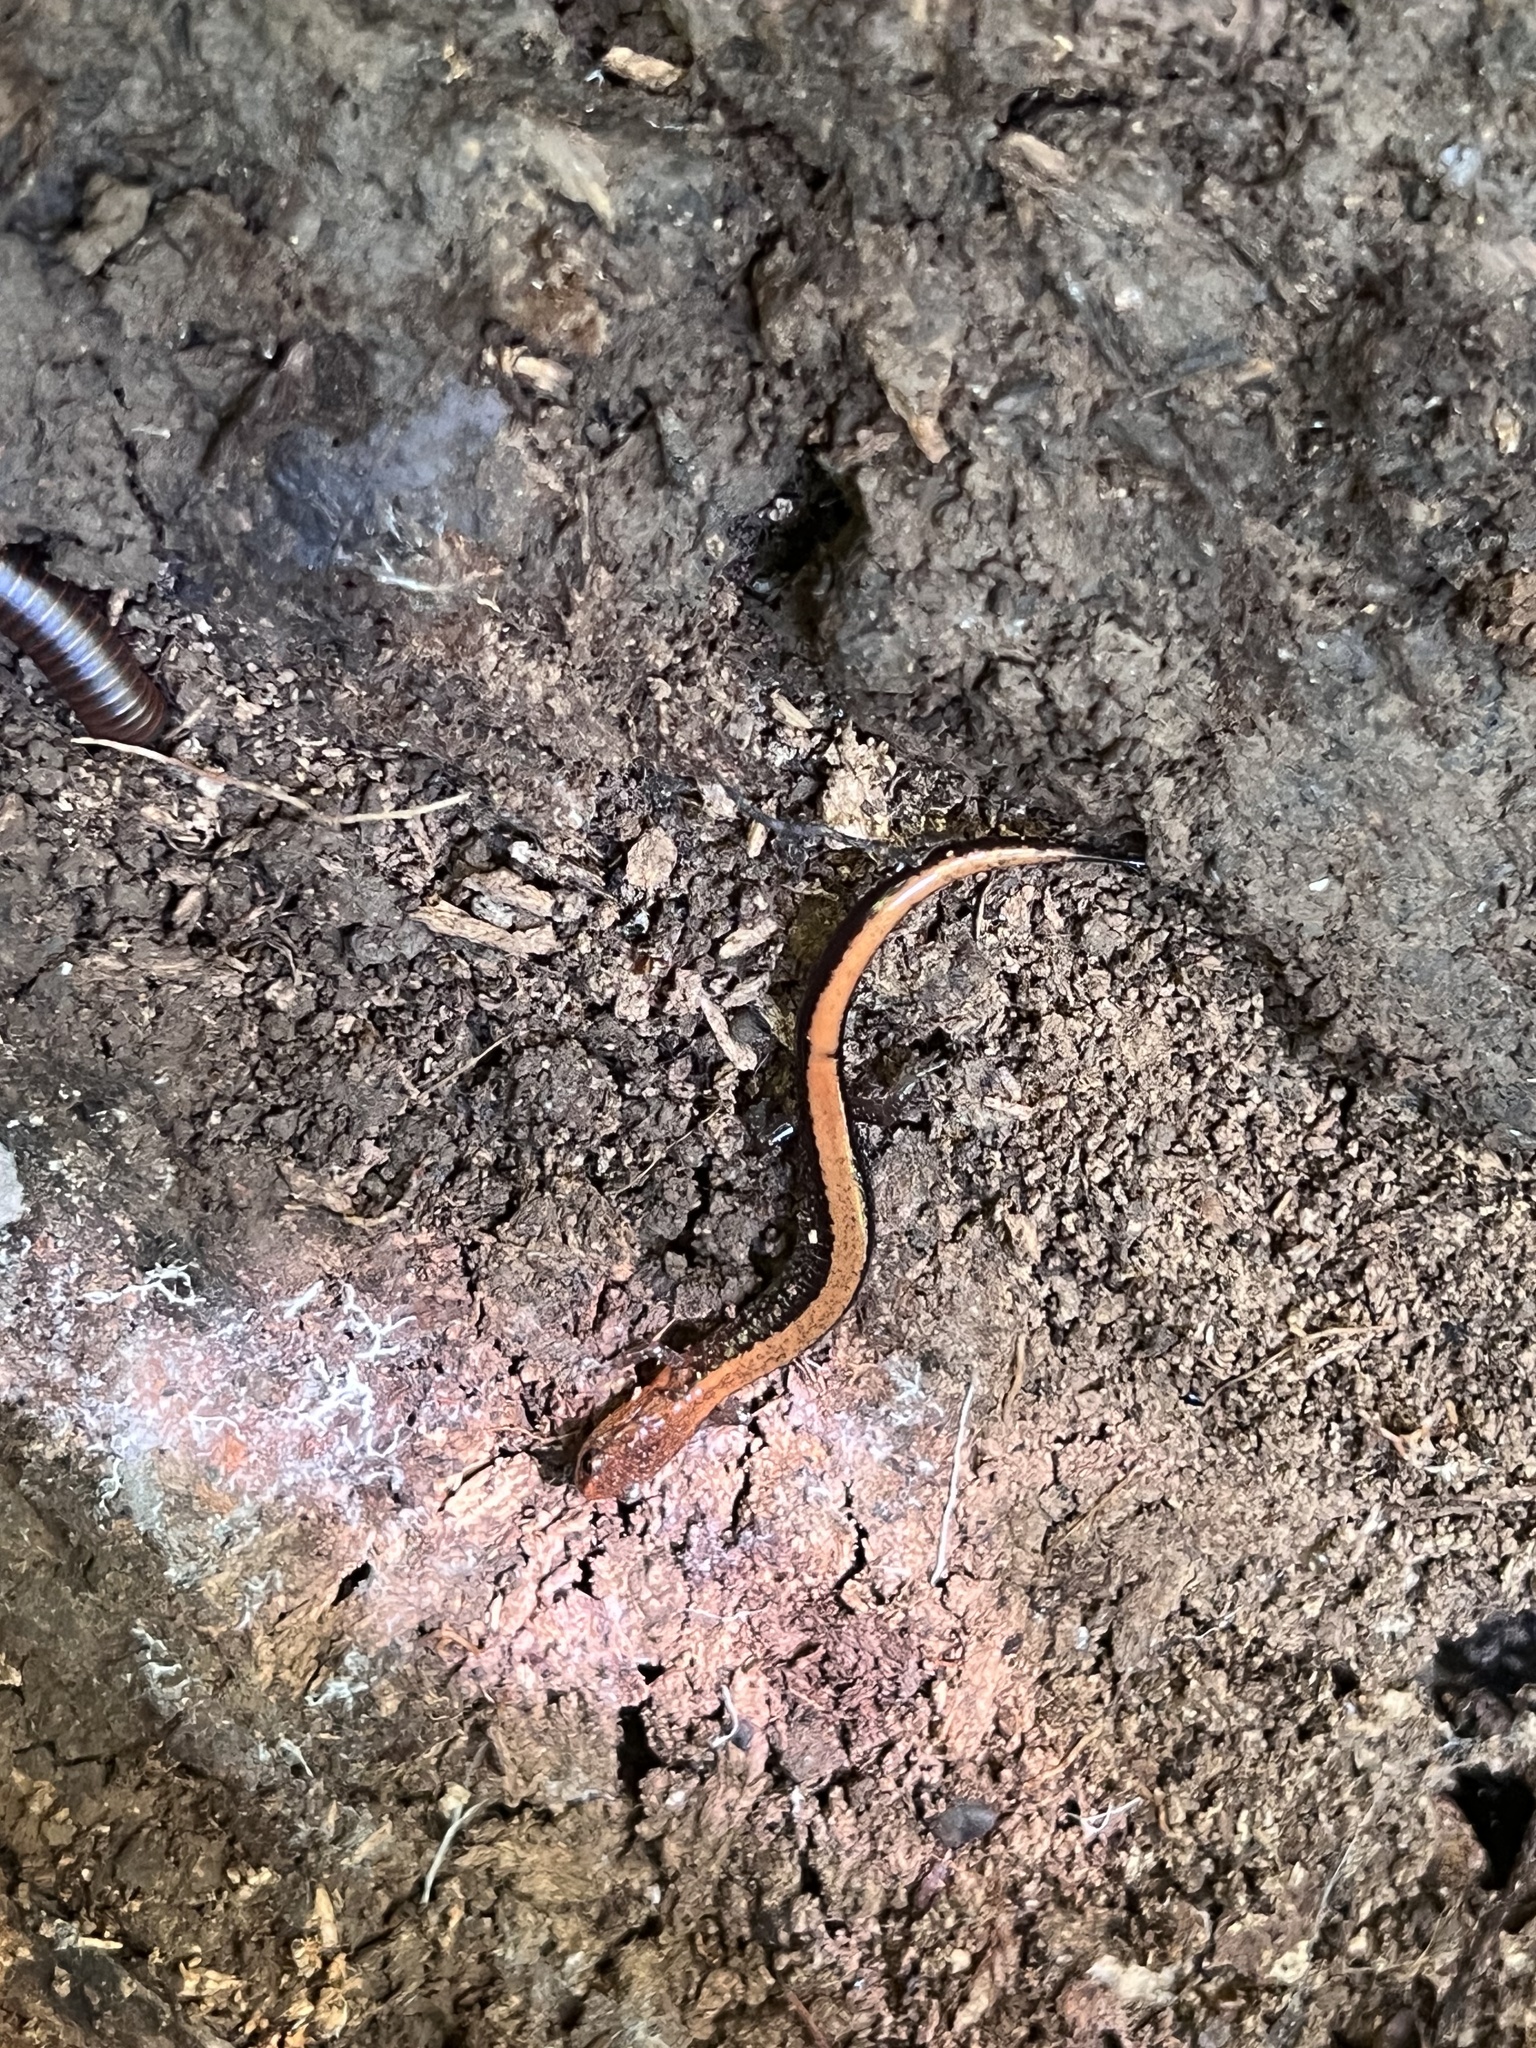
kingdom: Animalia
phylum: Chordata
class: Amphibia
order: Caudata
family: Plethodontidae
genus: Plethodon
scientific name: Plethodon cinereus
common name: Redback salamander
